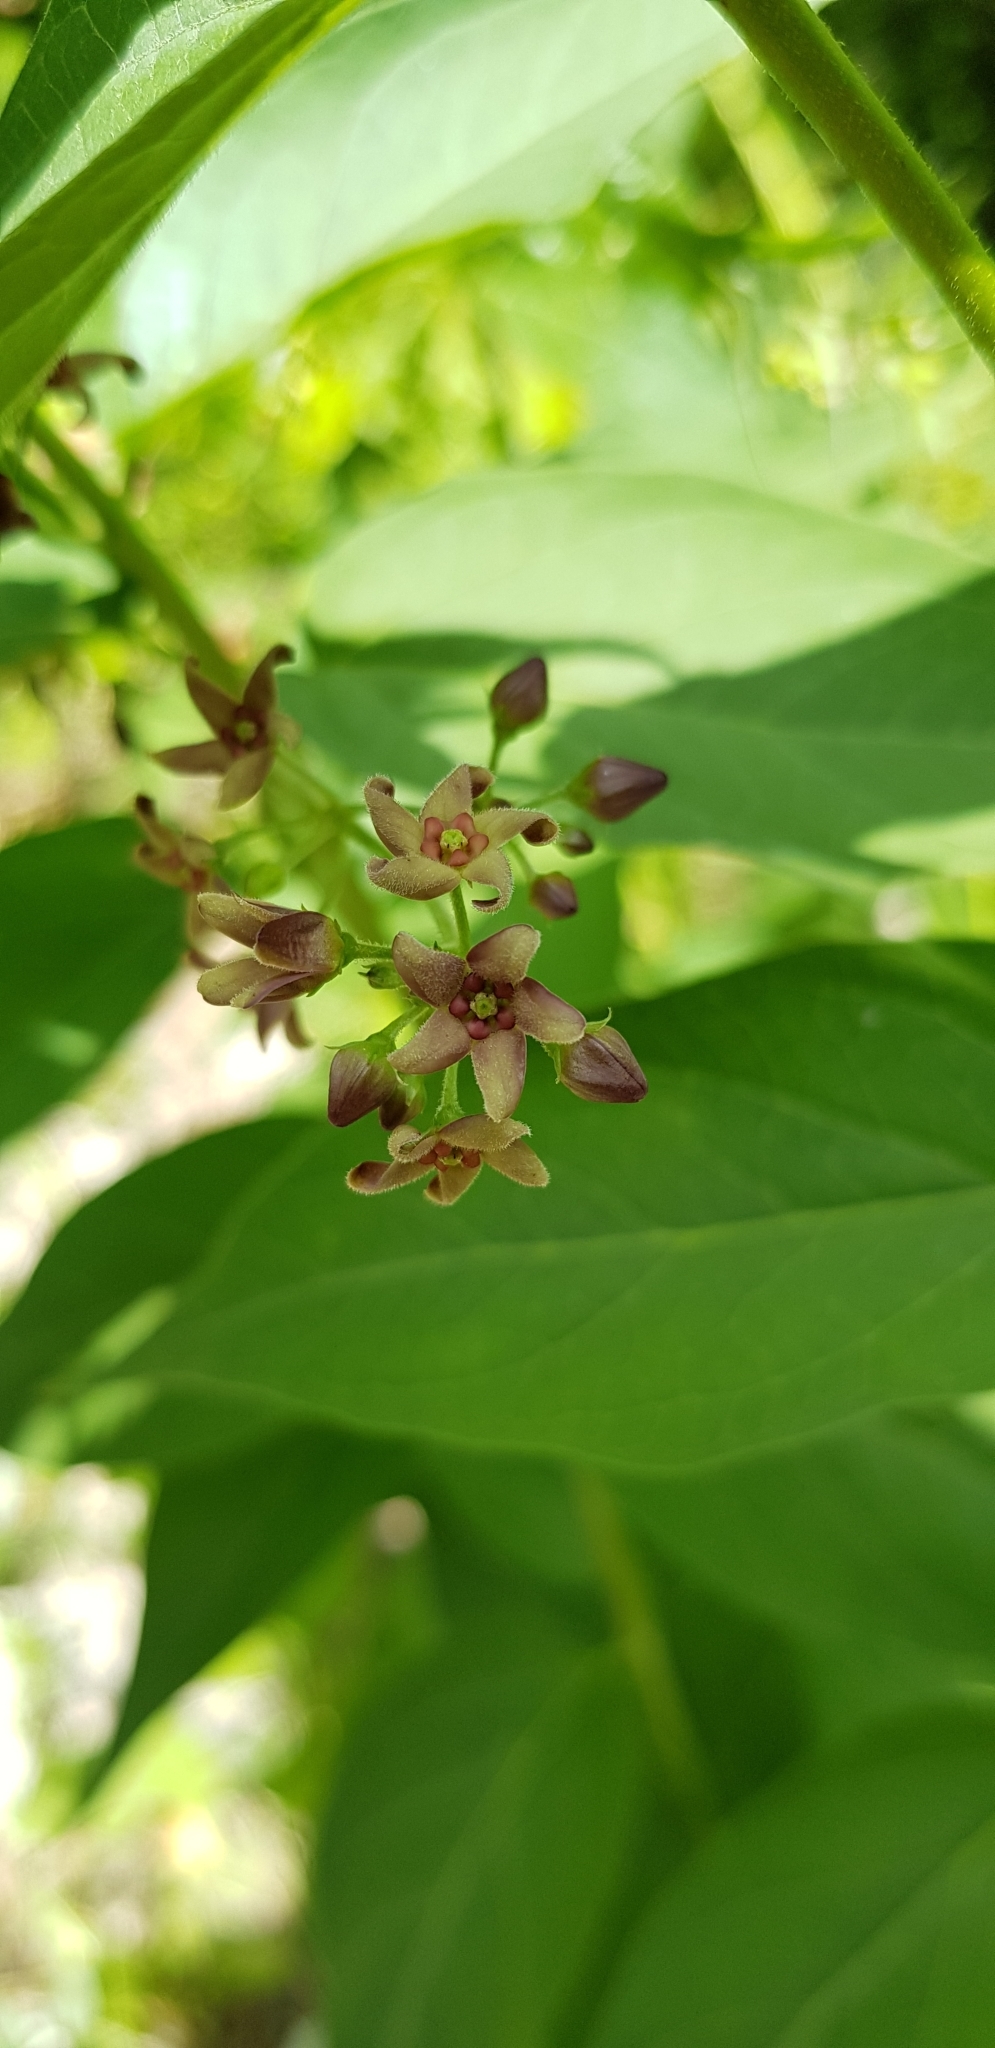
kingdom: Plantae
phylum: Tracheophyta
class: Magnoliopsida
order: Gentianales
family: Apocynaceae
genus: Vincetoxicum
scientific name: Vincetoxicum scandens
